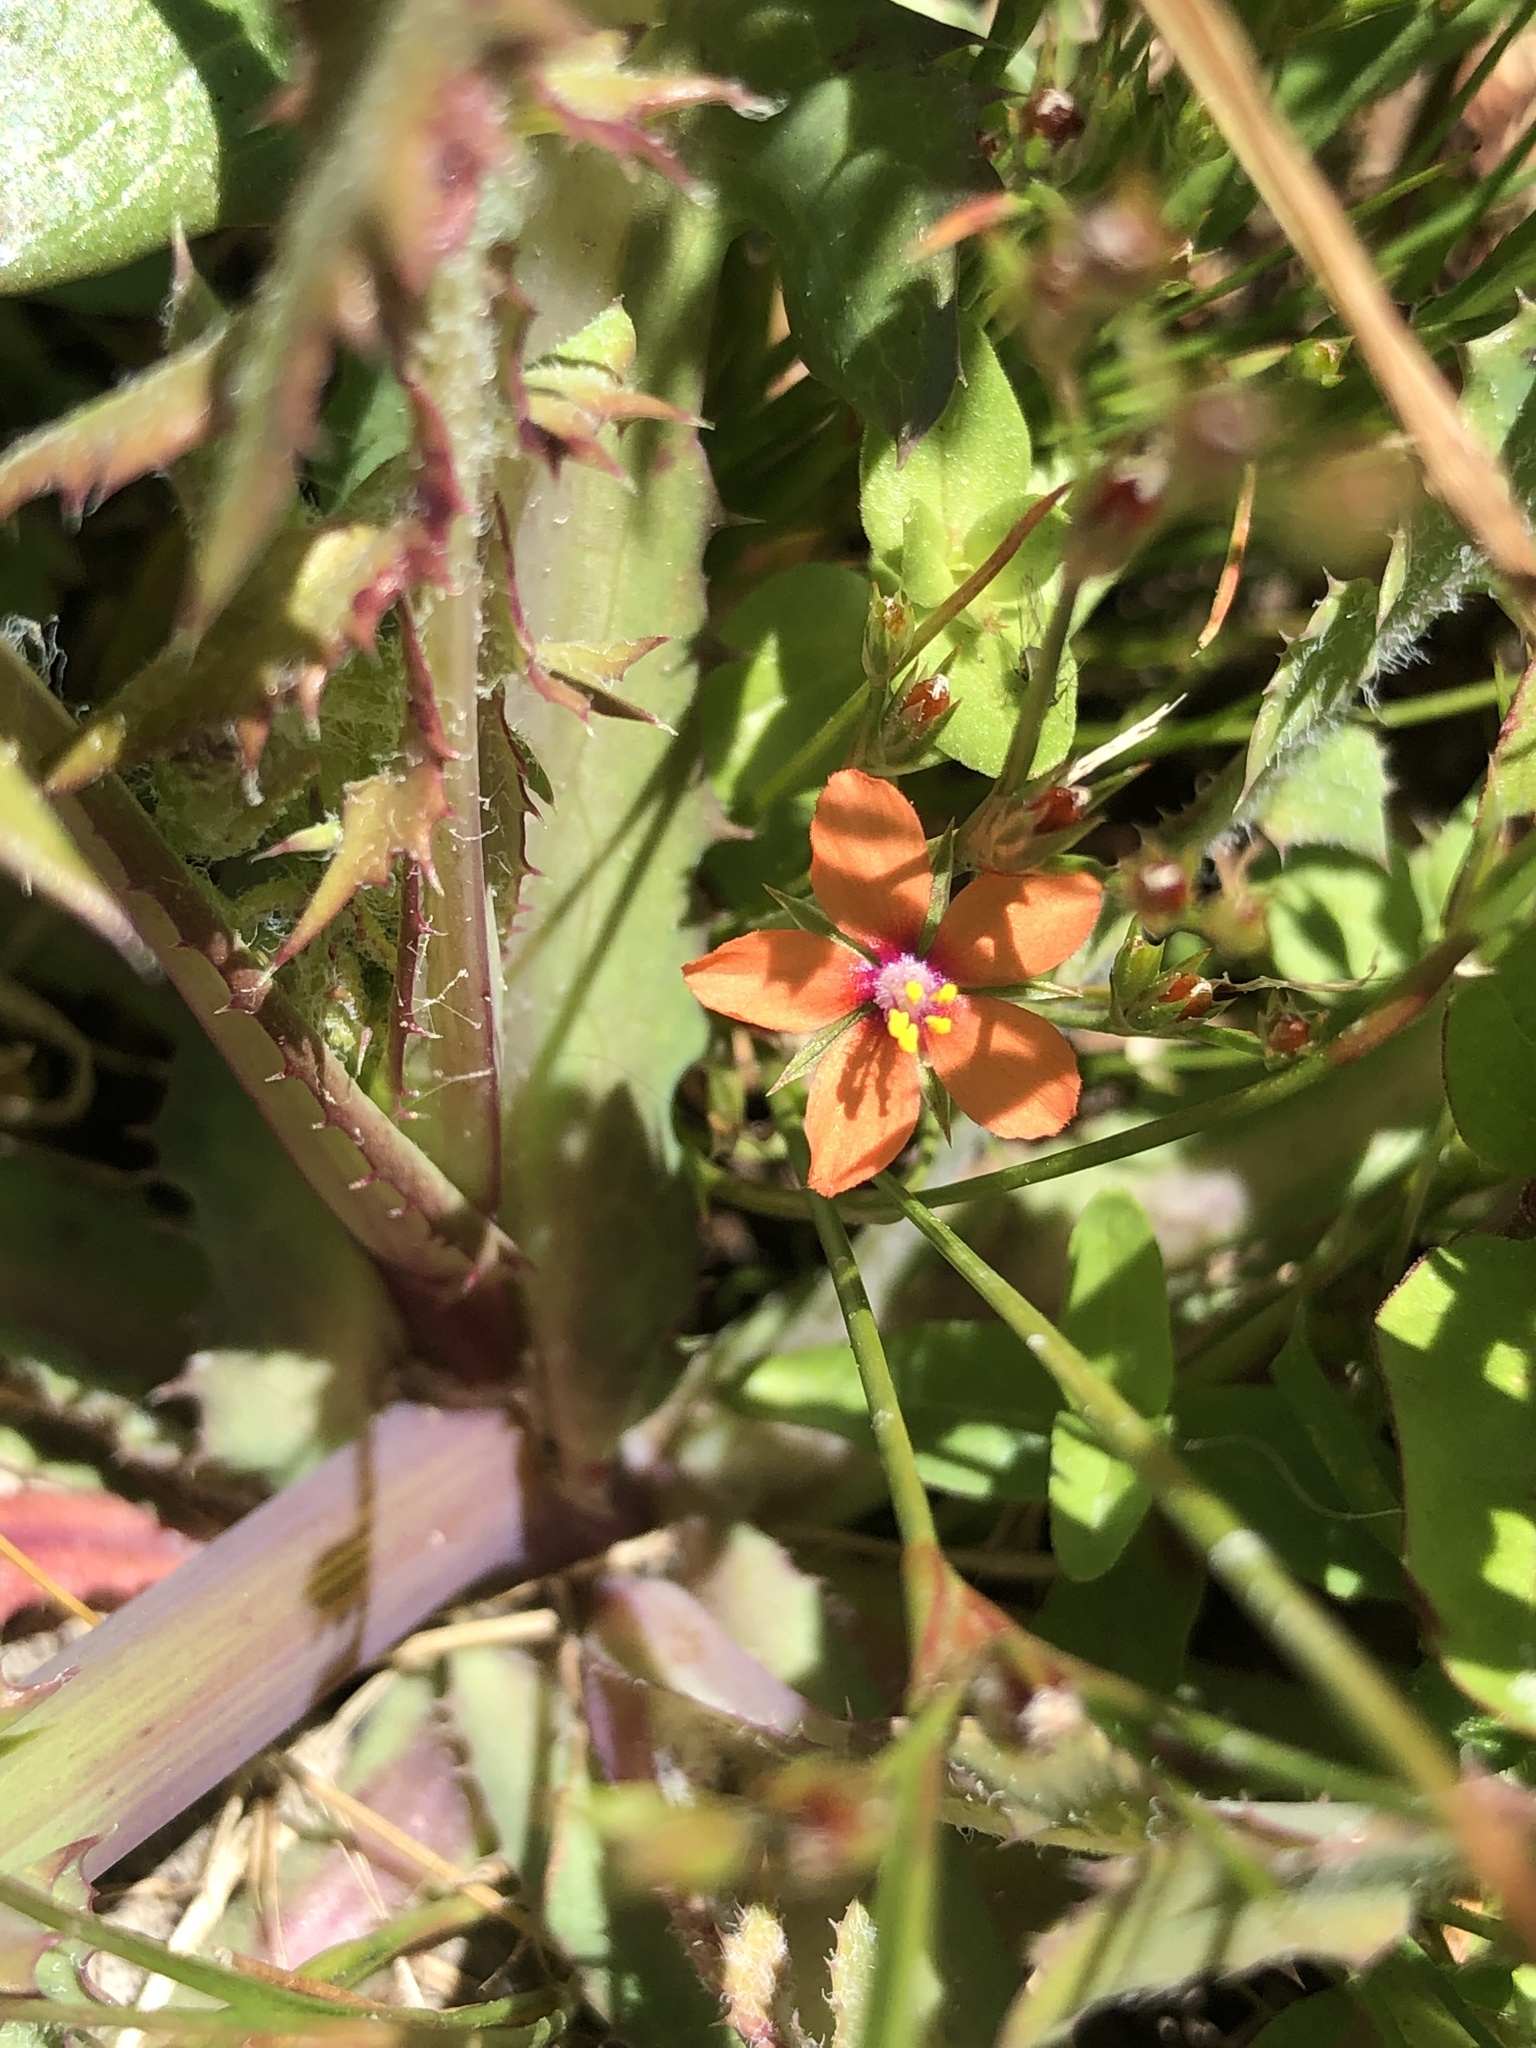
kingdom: Plantae
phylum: Tracheophyta
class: Magnoliopsida
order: Ericales
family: Primulaceae
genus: Lysimachia
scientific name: Lysimachia arvensis
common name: Scarlet pimpernel
